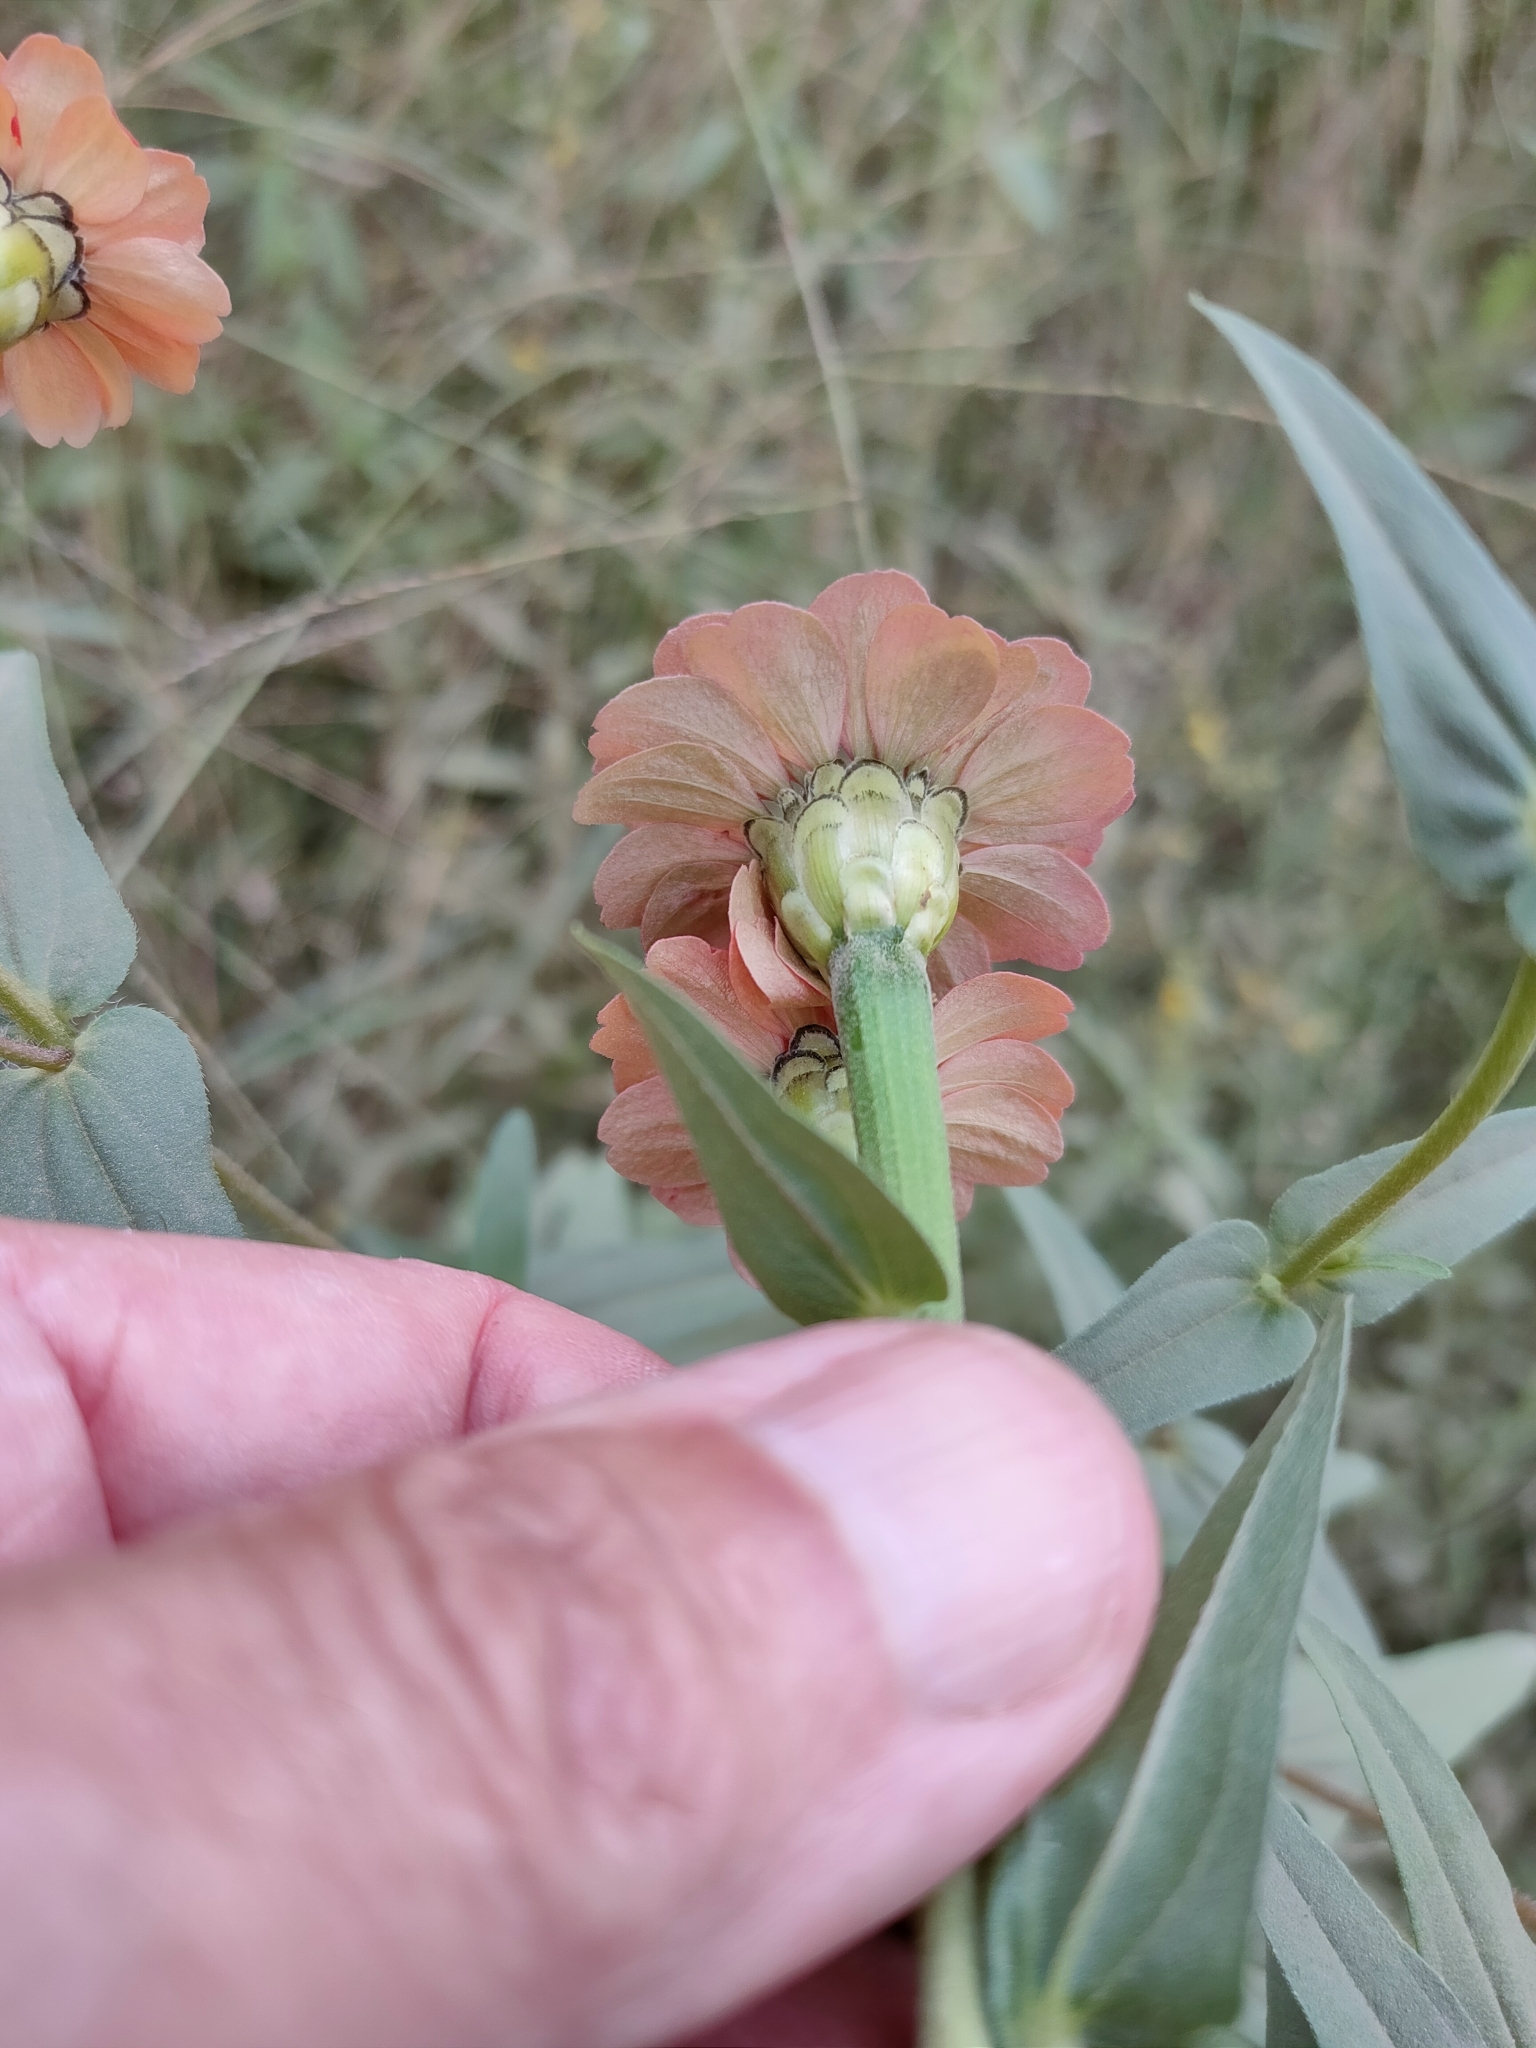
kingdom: Plantae
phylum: Tracheophyta
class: Magnoliopsida
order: Asterales
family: Asteraceae
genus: Zinnia
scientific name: Zinnia peruviana
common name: Peruvian zinnia
